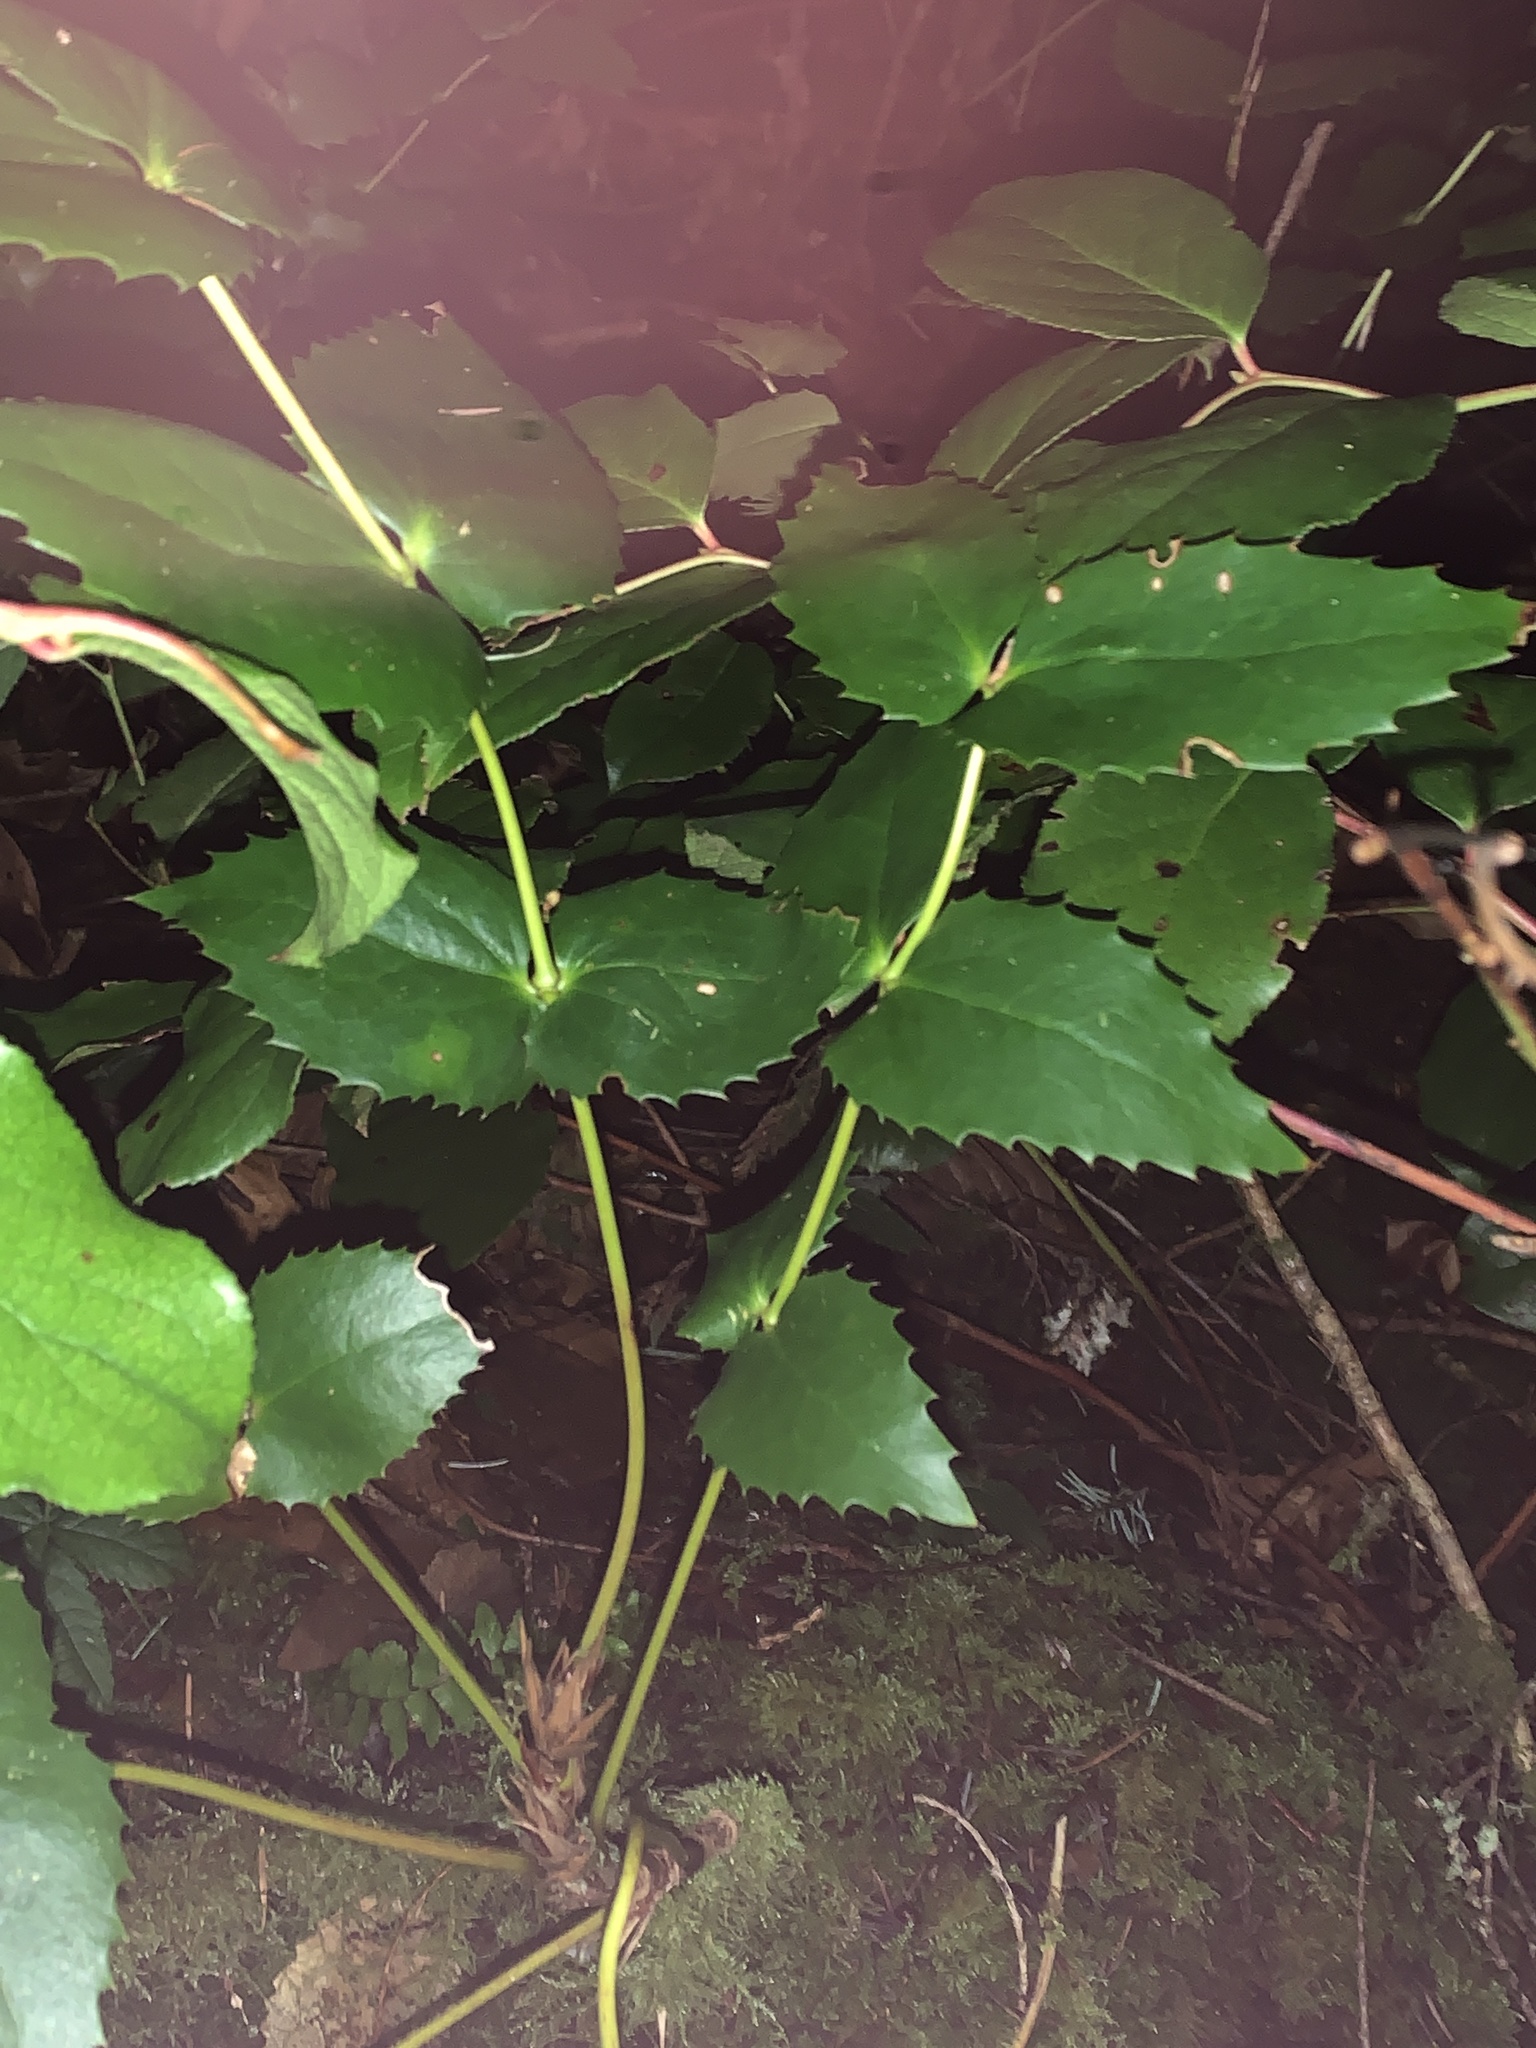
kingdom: Plantae
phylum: Tracheophyta
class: Magnoliopsida
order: Ranunculales
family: Berberidaceae
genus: Mahonia
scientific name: Mahonia nervosa
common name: Cascade oregon-grape
